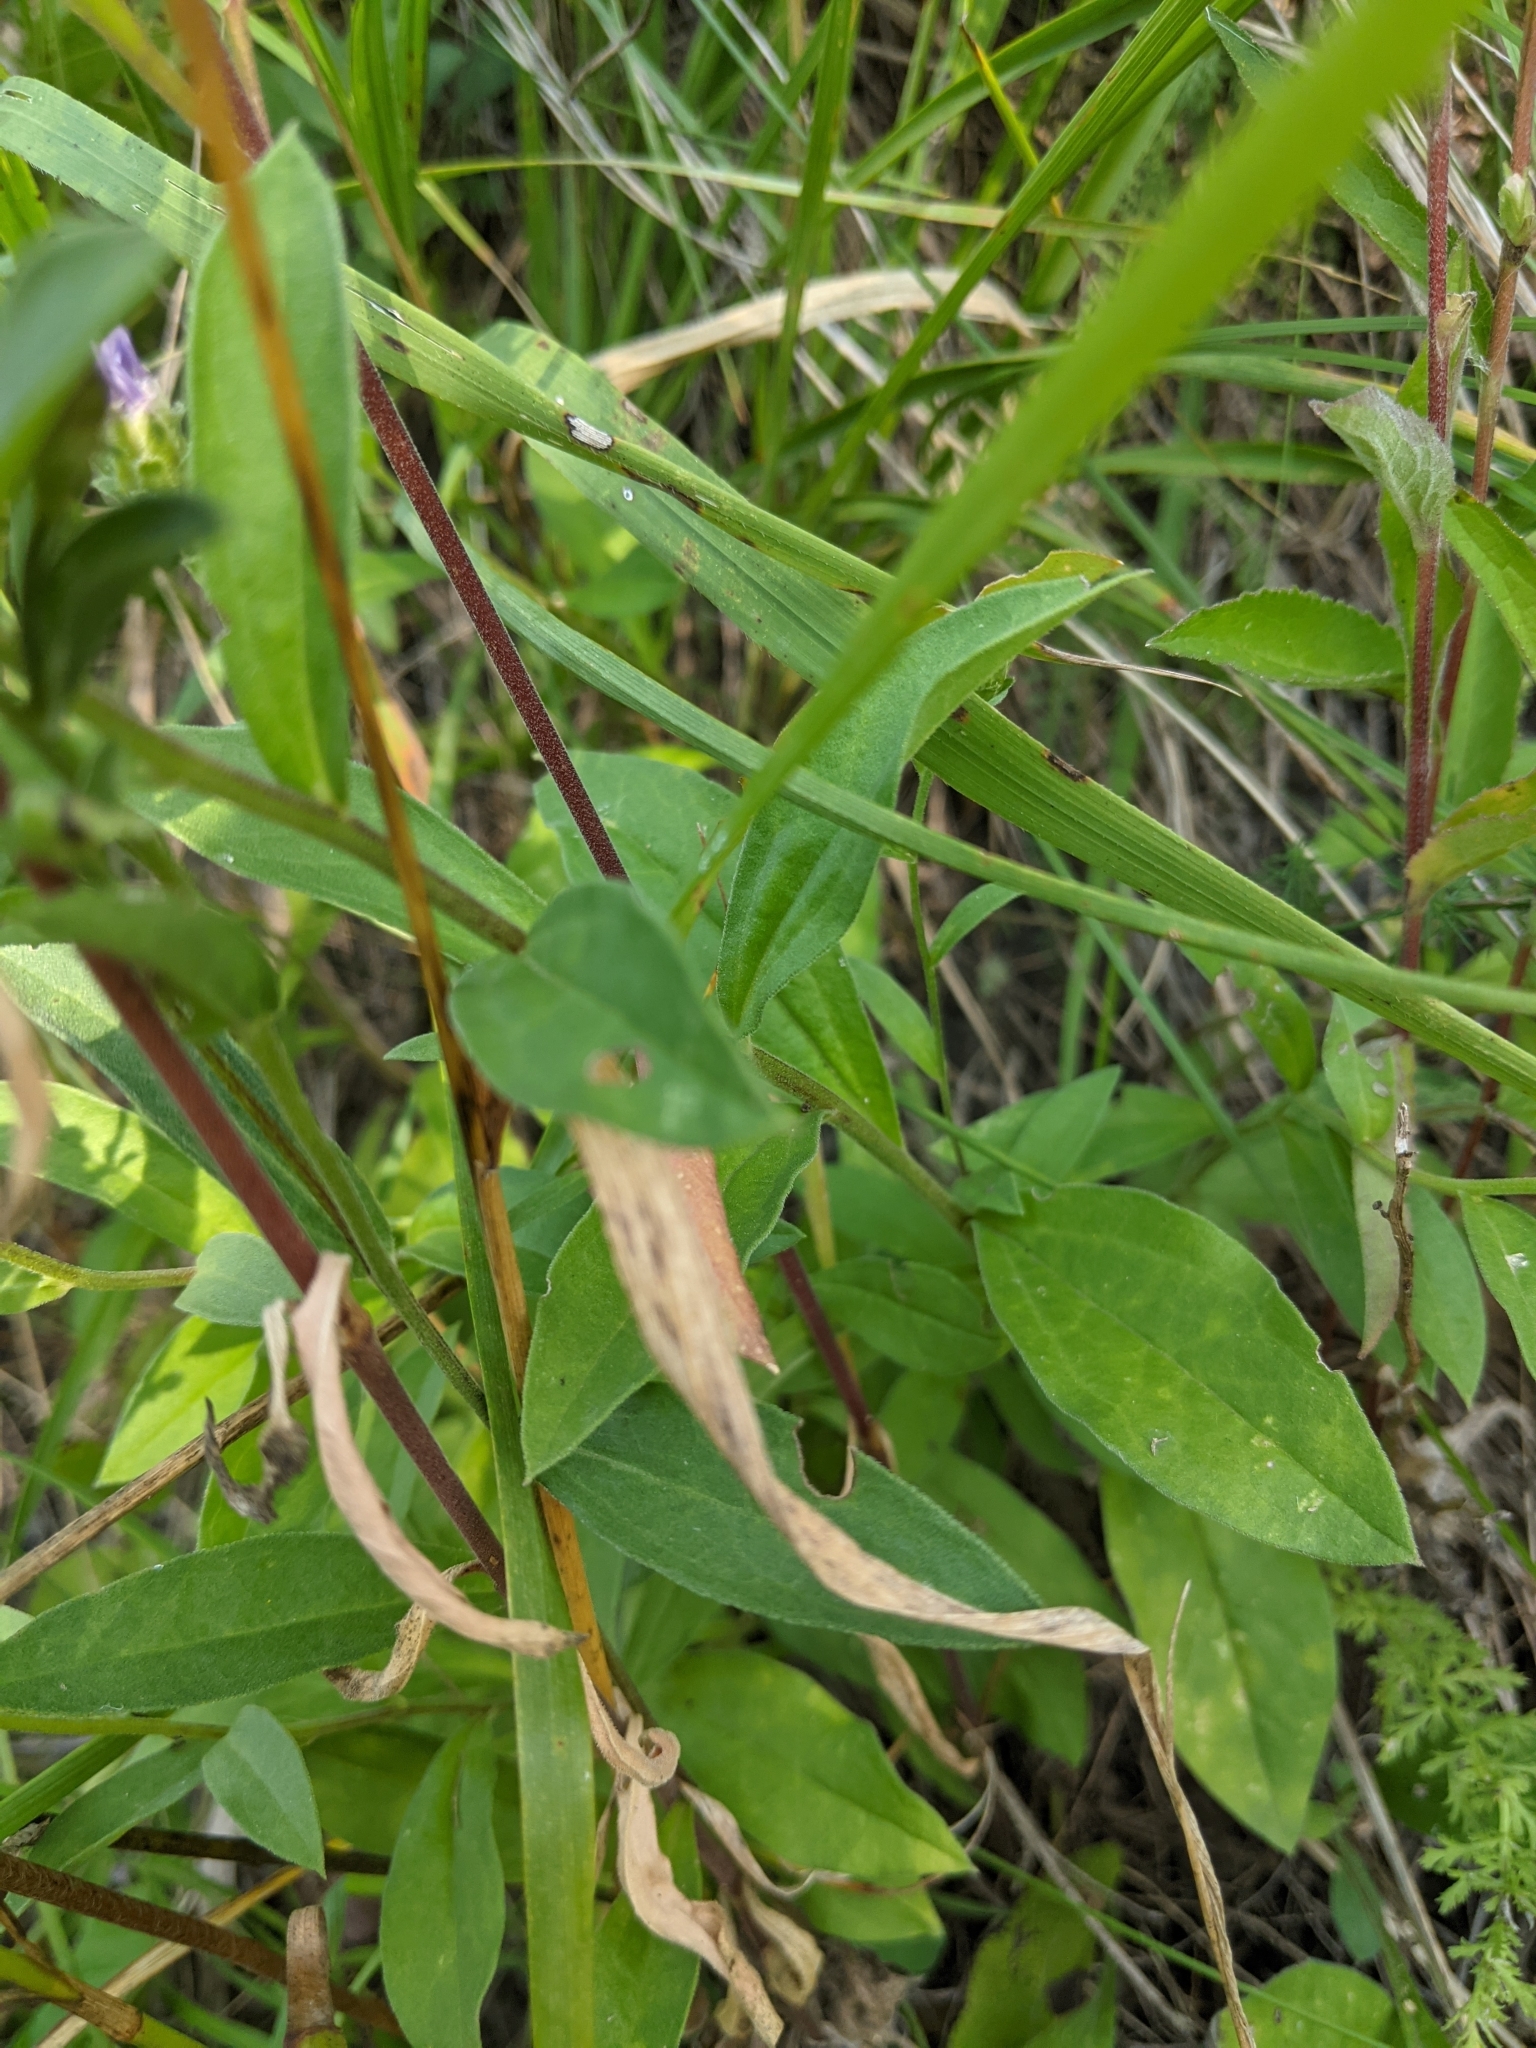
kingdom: Plantae
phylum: Tracheophyta
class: Magnoliopsida
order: Asterales
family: Asteraceae
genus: Aster
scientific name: Aster amellus
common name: European michaelmas daisy
